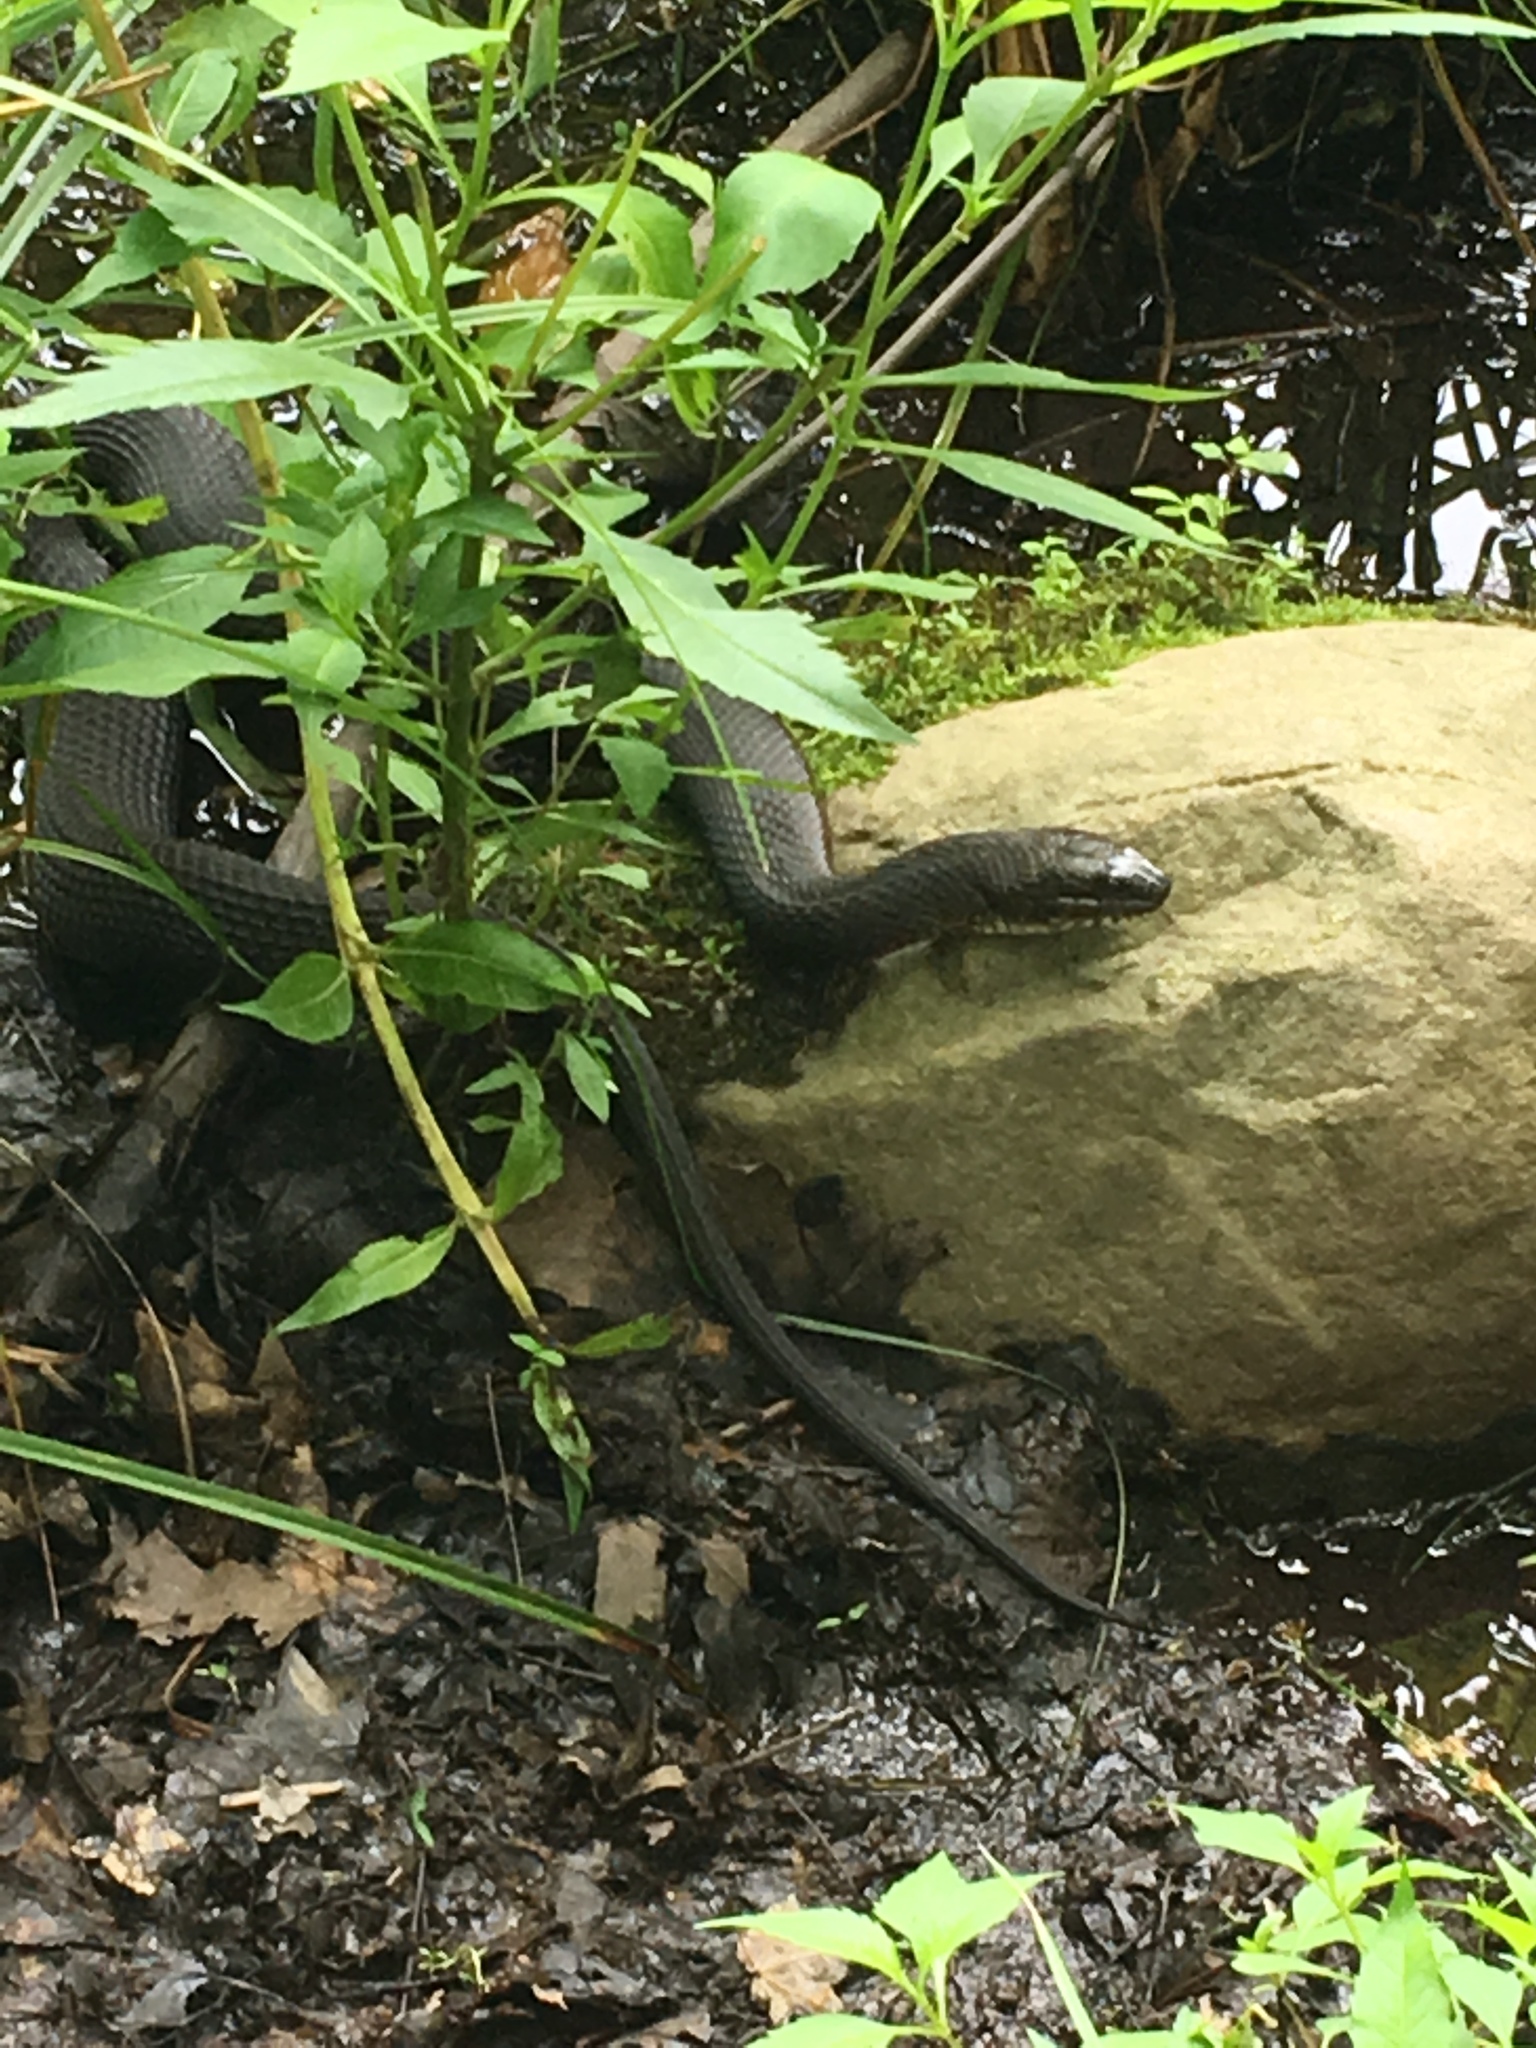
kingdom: Animalia
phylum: Chordata
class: Squamata
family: Colubridae
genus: Nerodia
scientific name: Nerodia sipedon
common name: Northern water snake
